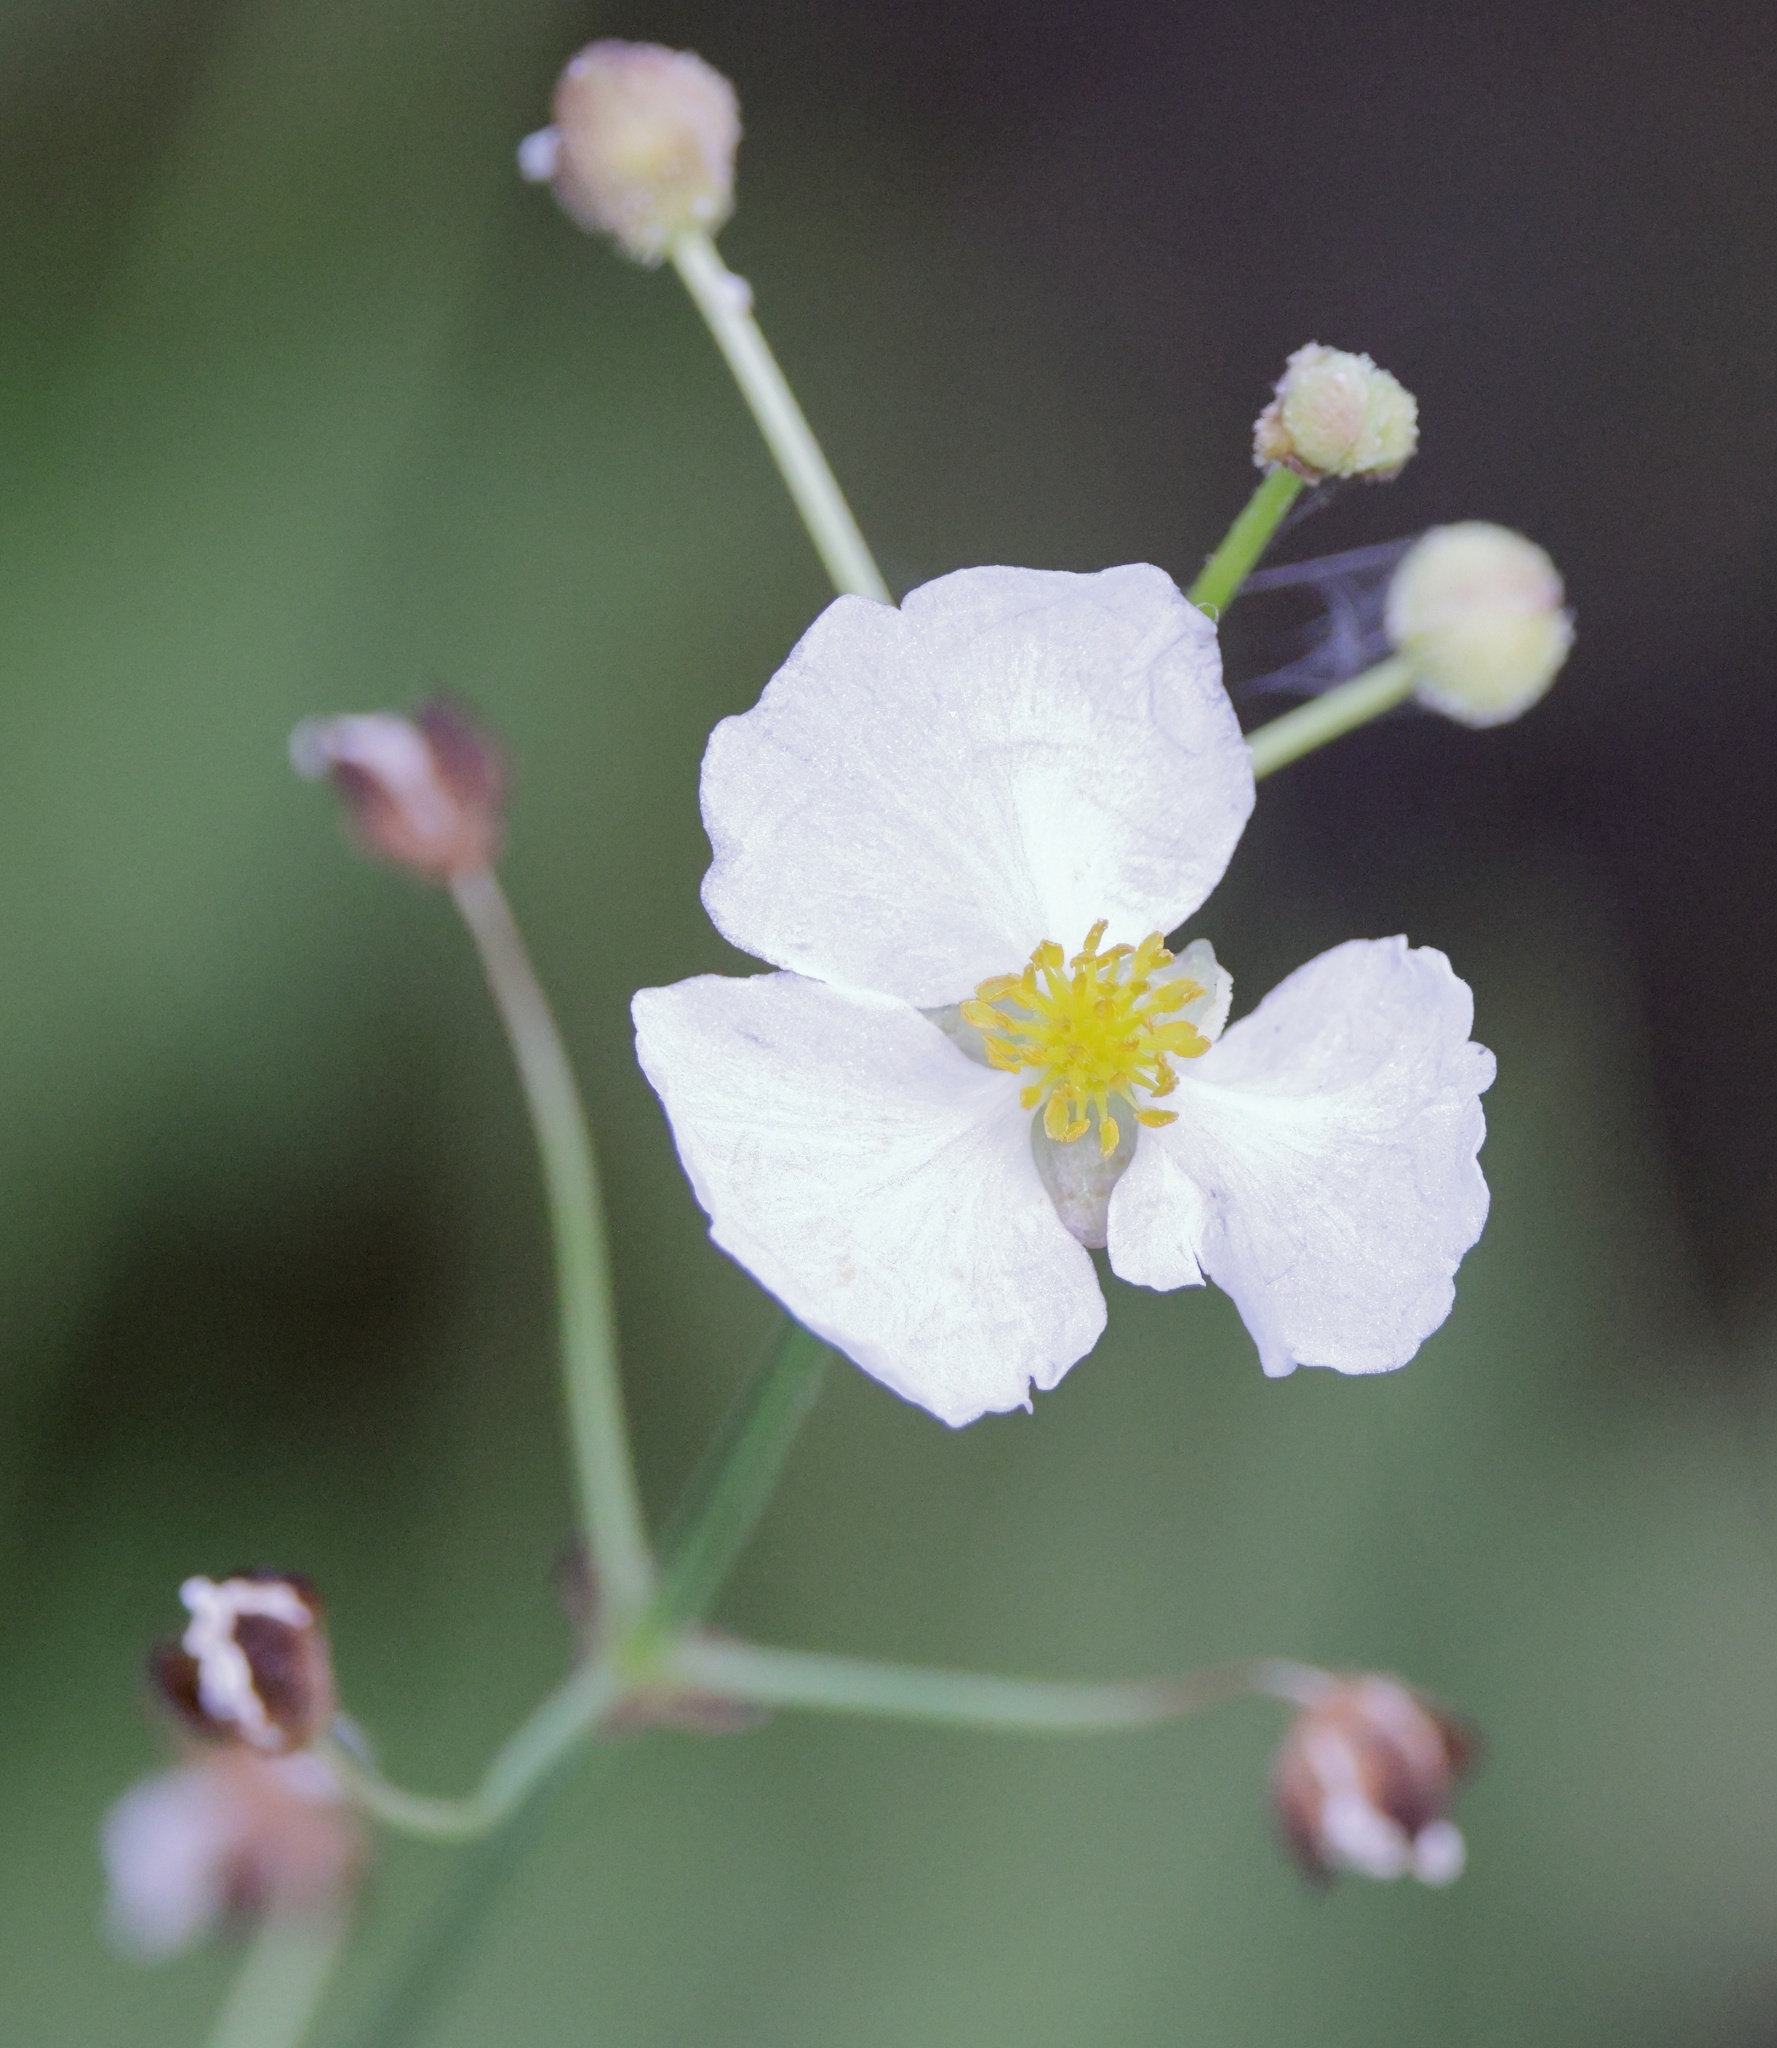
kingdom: Plantae
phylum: Tracheophyta
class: Liliopsida
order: Alismatales
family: Alismataceae
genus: Sagittaria
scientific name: Sagittaria lancifolia
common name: Lance-leaf arrowhead
